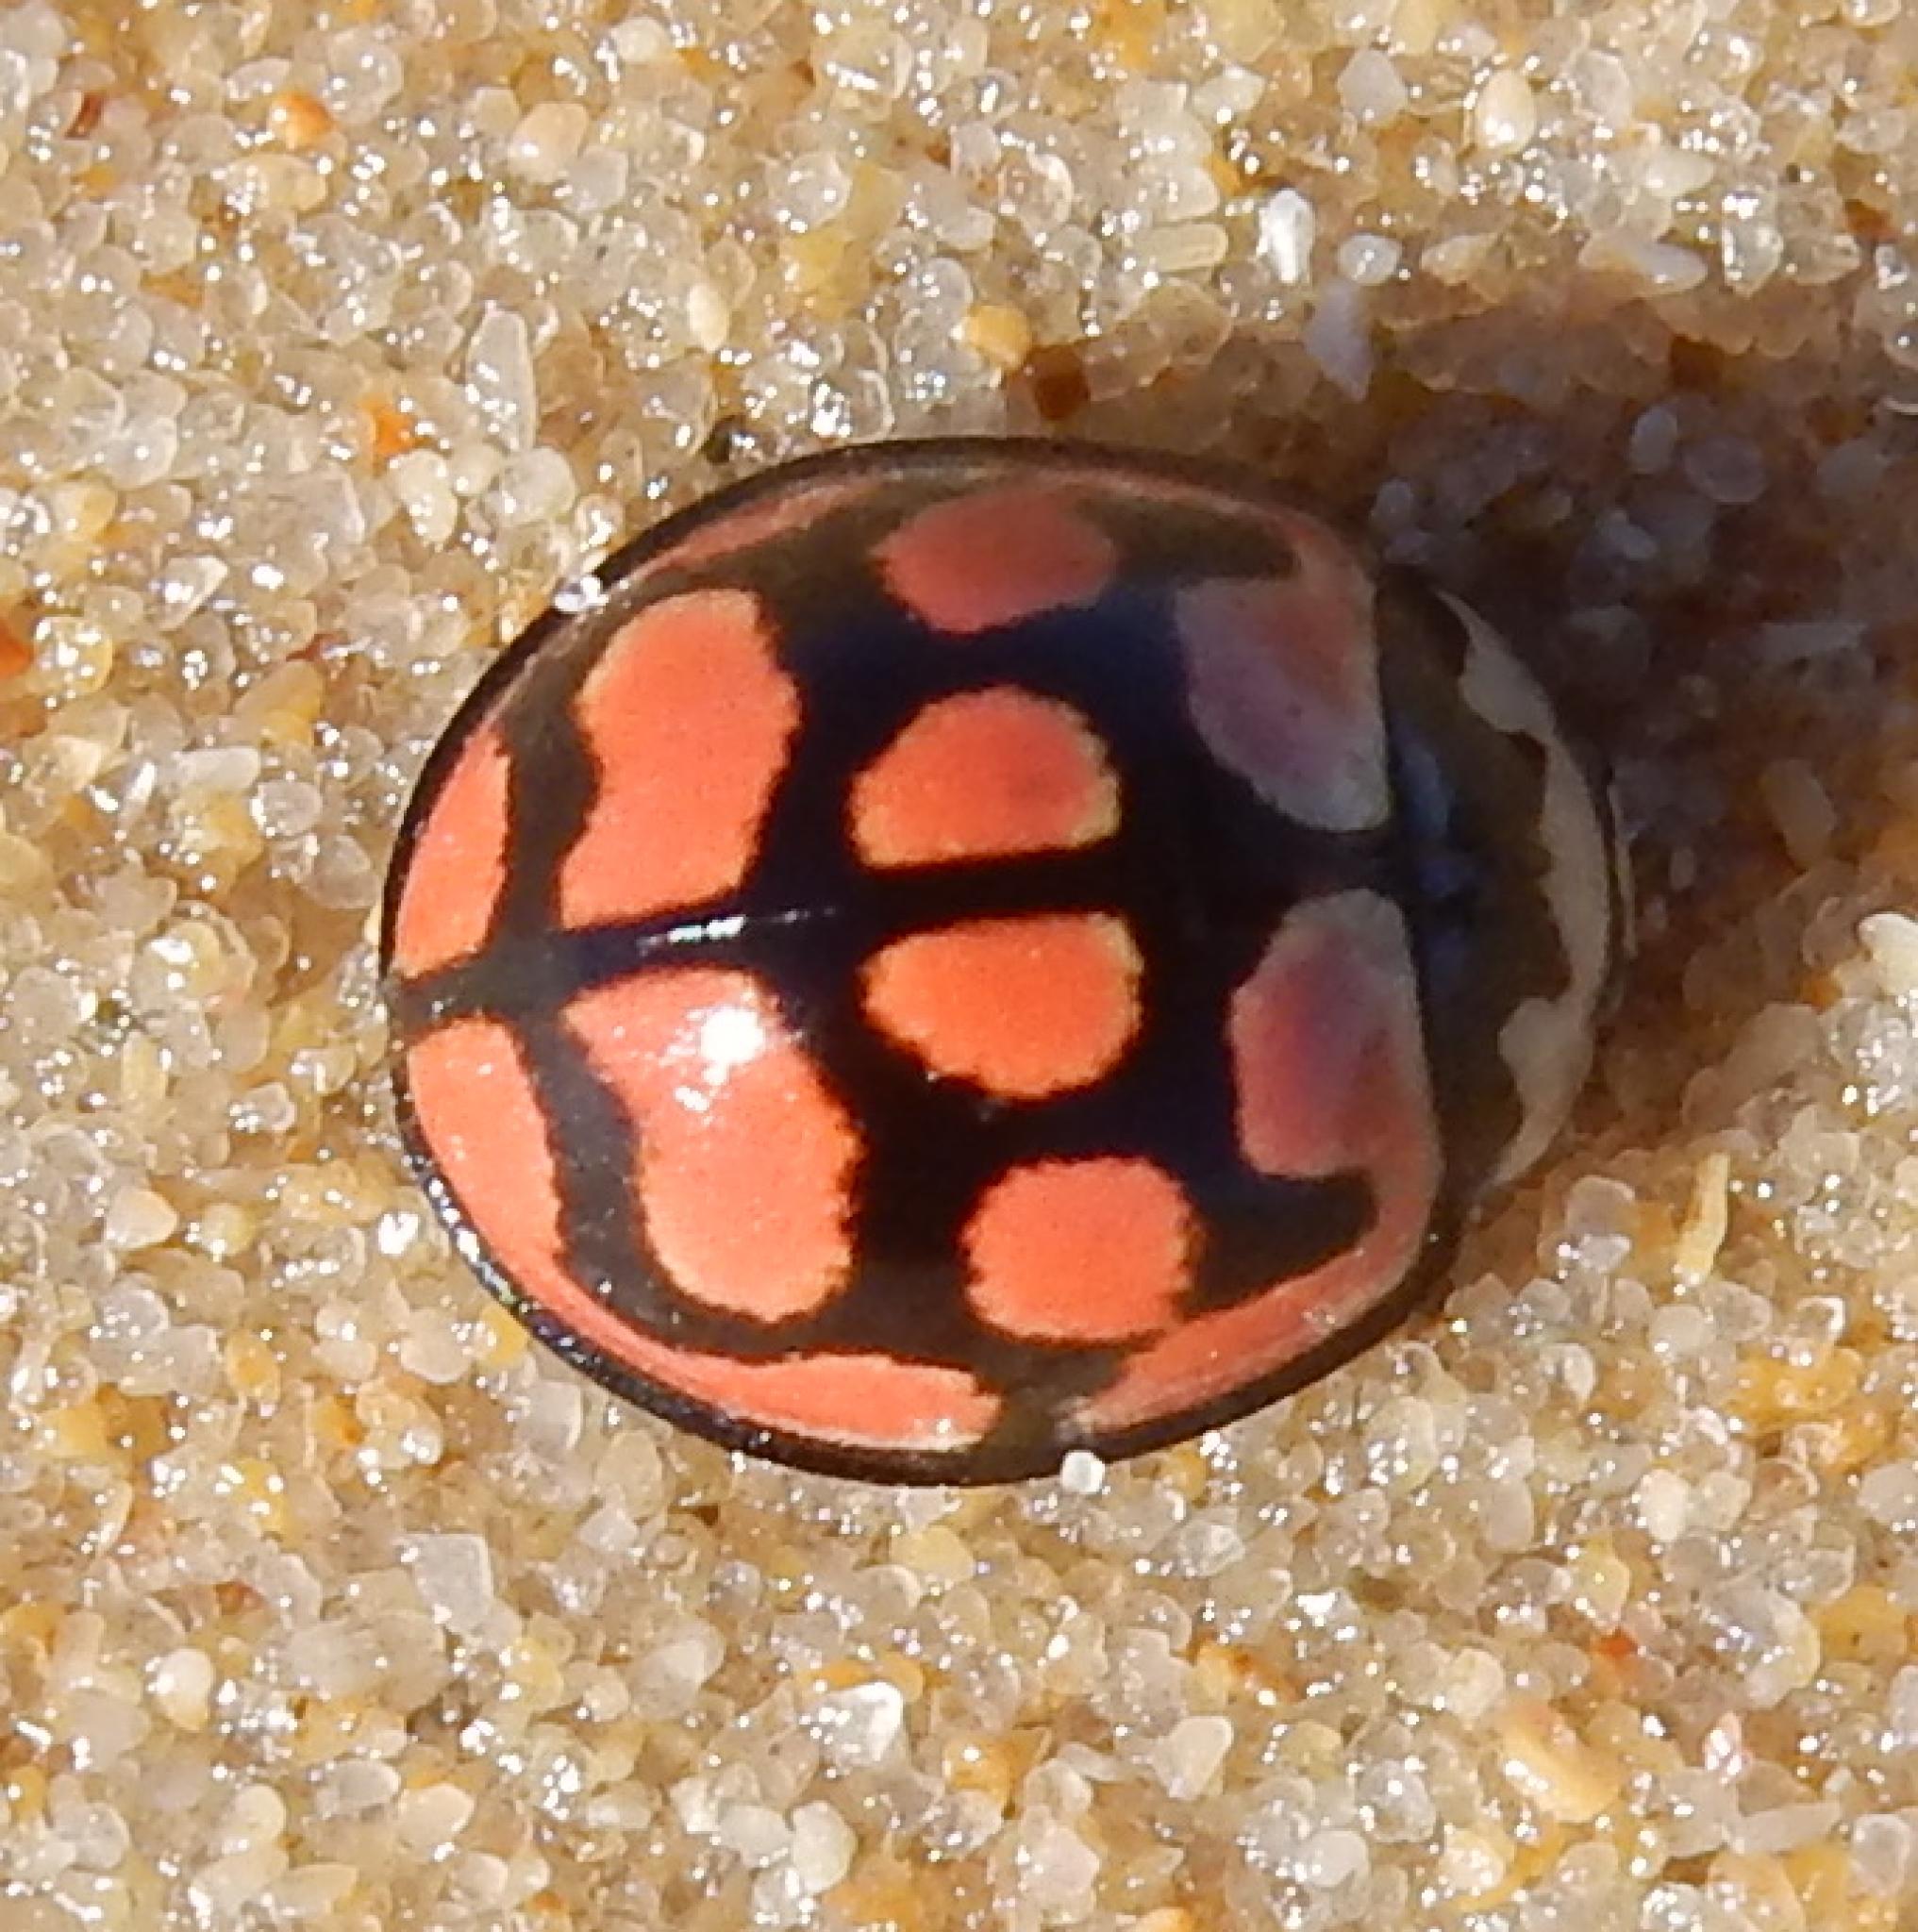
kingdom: Animalia
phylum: Arthropoda
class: Insecta
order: Coleoptera
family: Coccinellidae
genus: Cheilomenes
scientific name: Cheilomenes lunata
